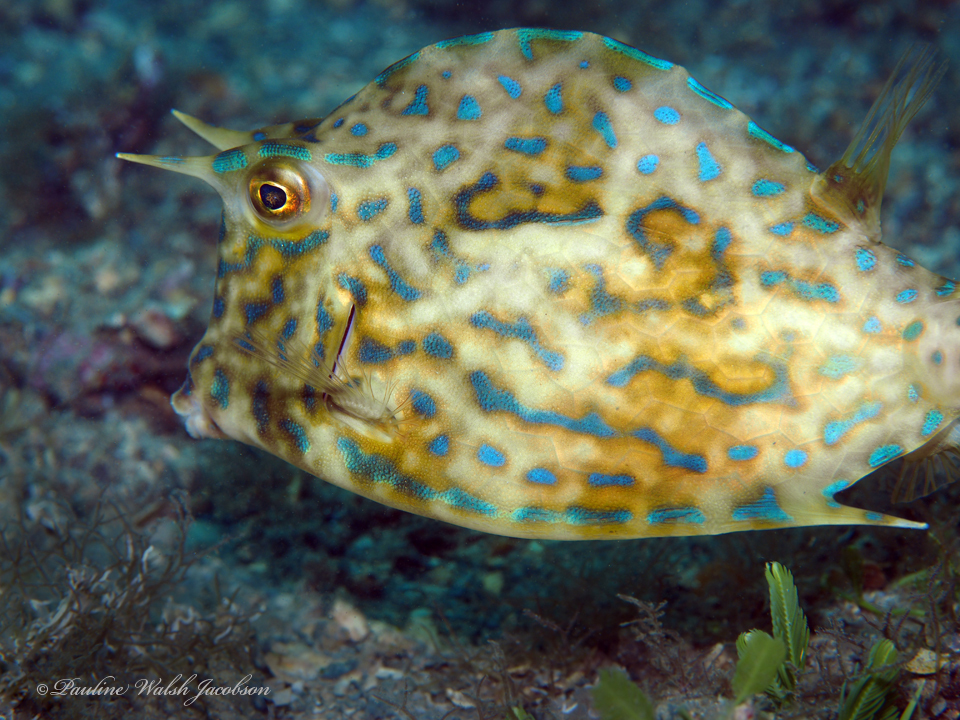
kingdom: Animalia
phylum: Chordata
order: Tetraodontiformes
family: Ostraciidae
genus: Acanthostracion
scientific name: Acanthostracion quadricornis
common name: Scrawled cowfish
